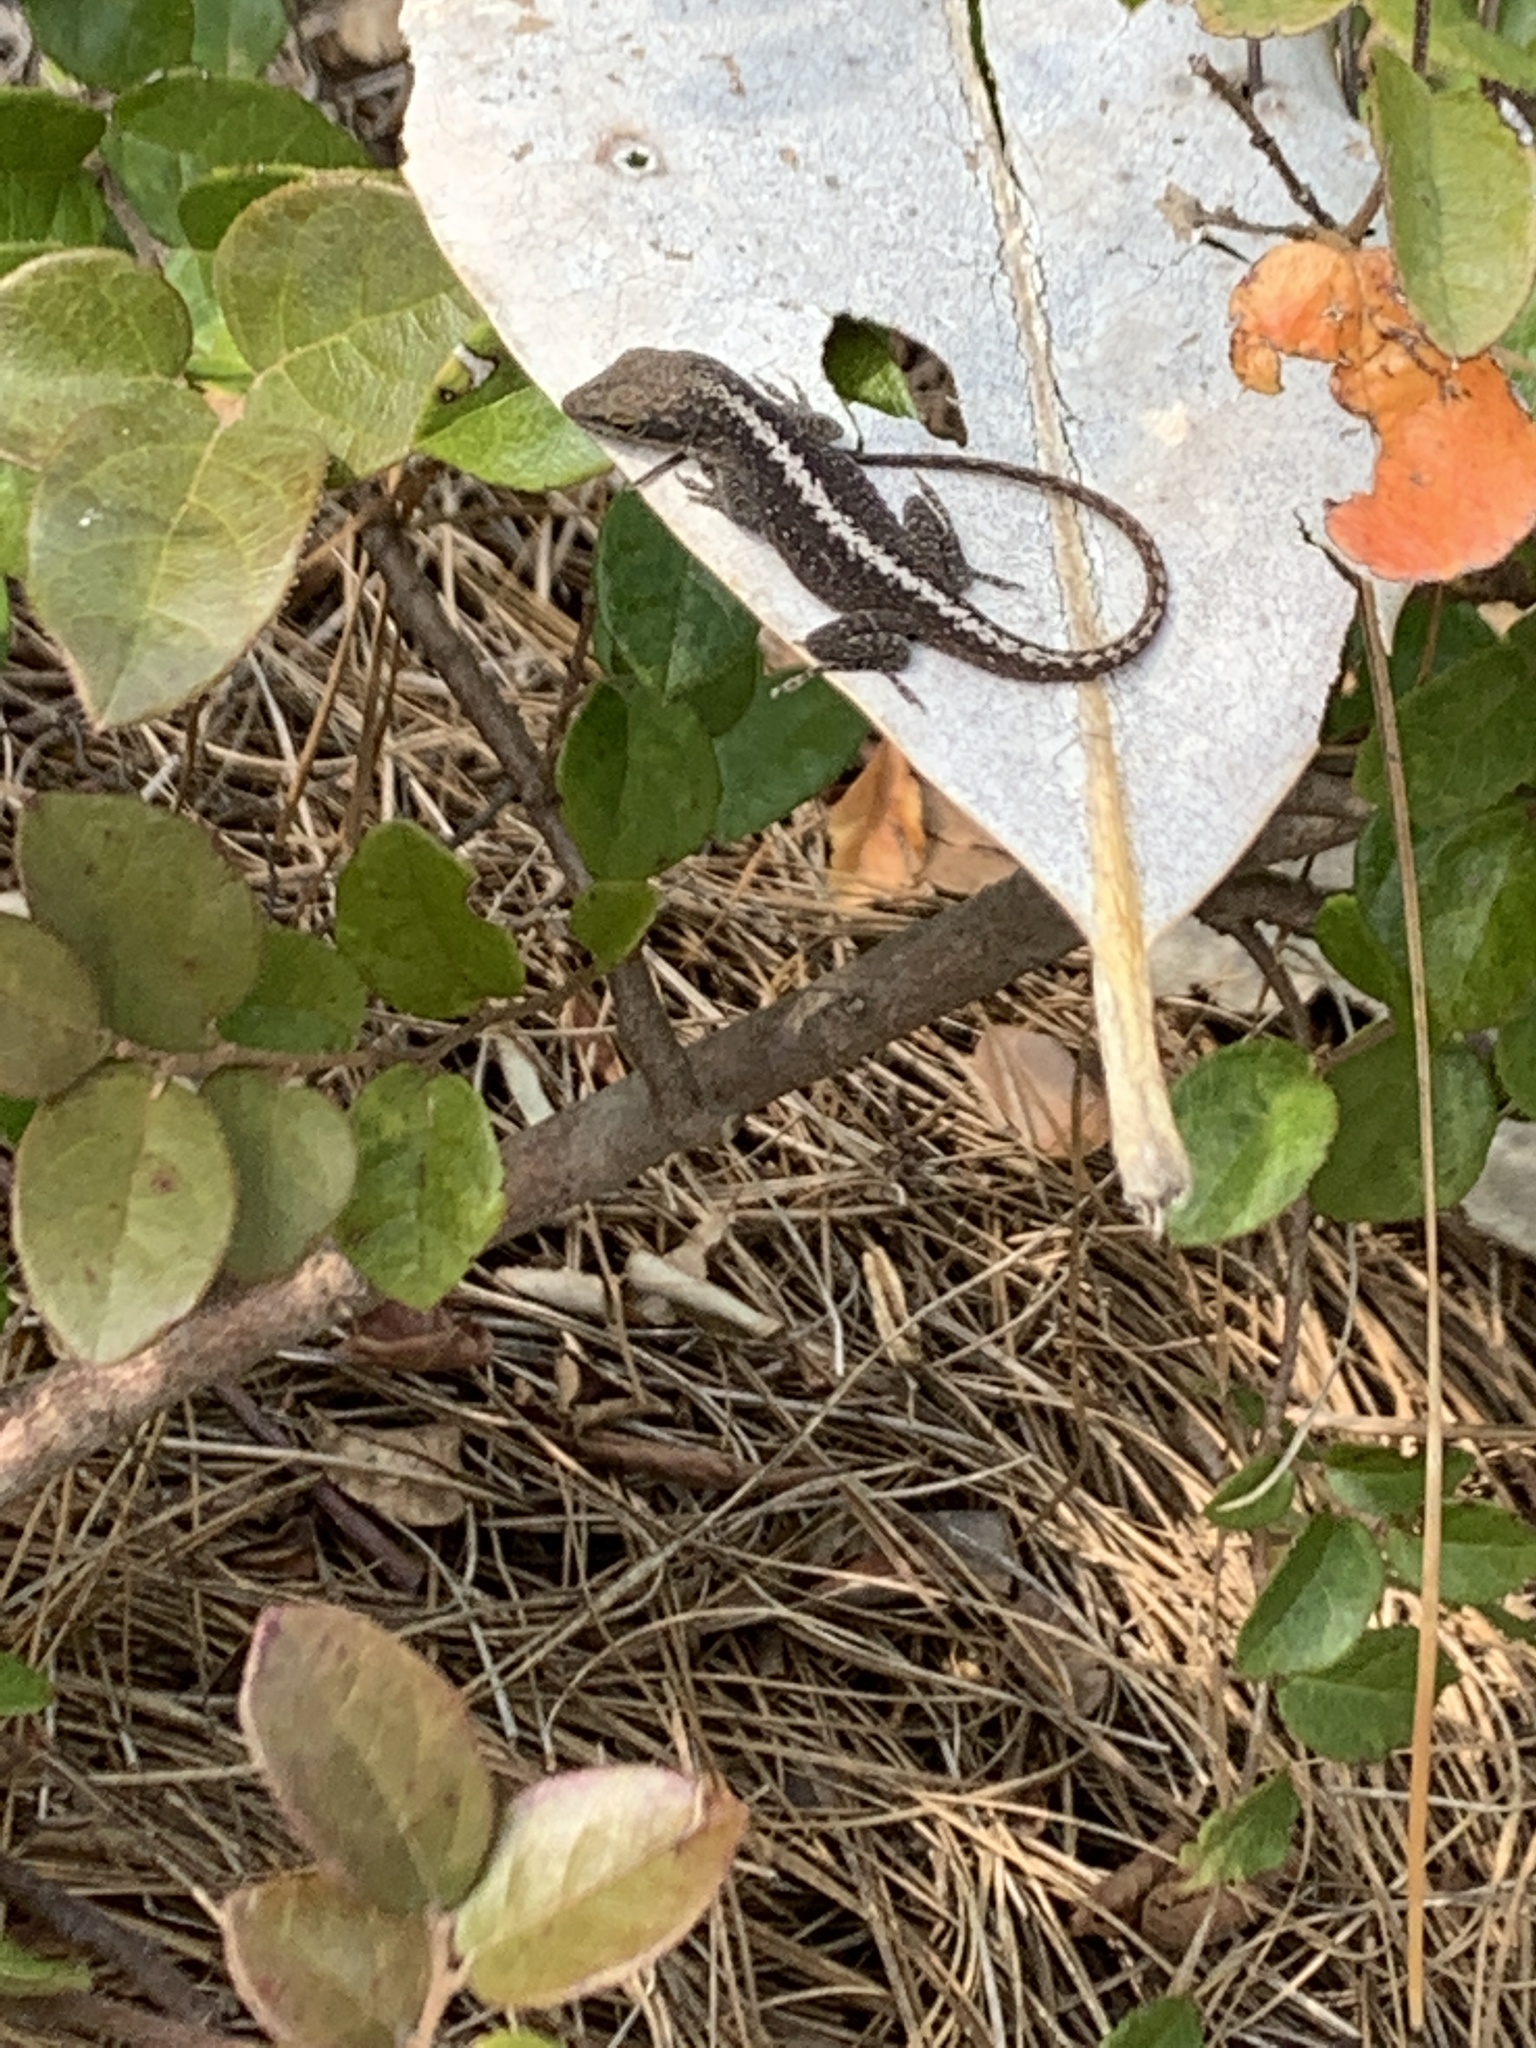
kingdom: Animalia
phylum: Chordata
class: Squamata
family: Dactyloidae
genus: Anolis
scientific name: Anolis carolinensis
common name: Green anole
